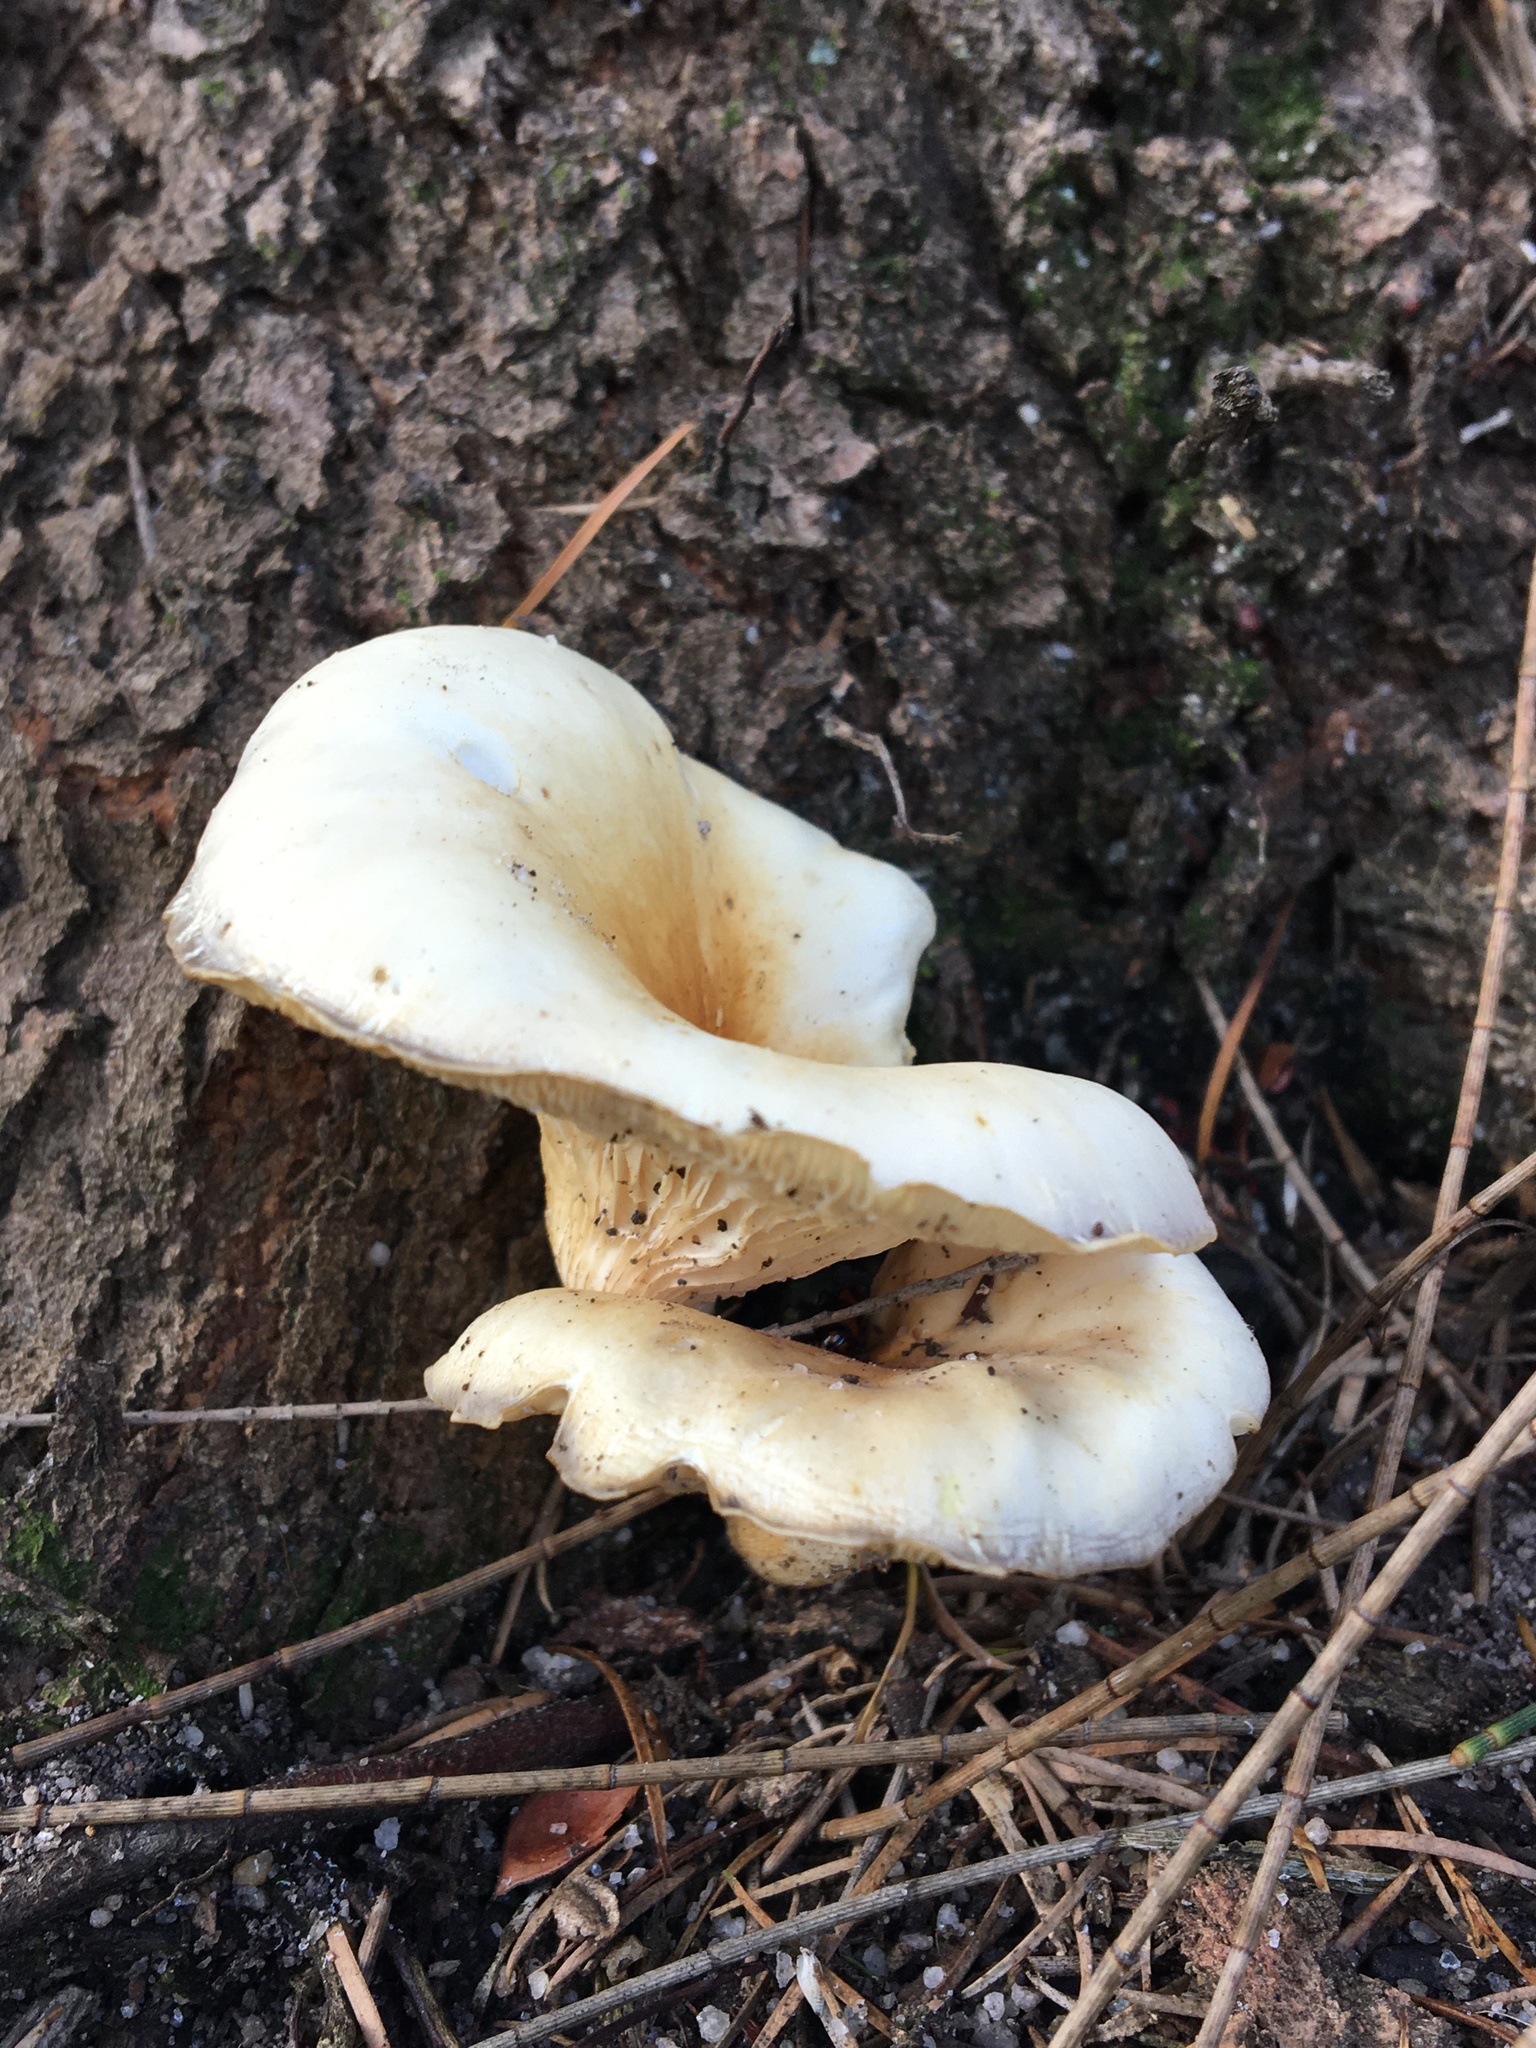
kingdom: Fungi
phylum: Basidiomycota
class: Agaricomycetes
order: Agaricales
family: Omphalotaceae
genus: Omphalotus
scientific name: Omphalotus nidiformis
